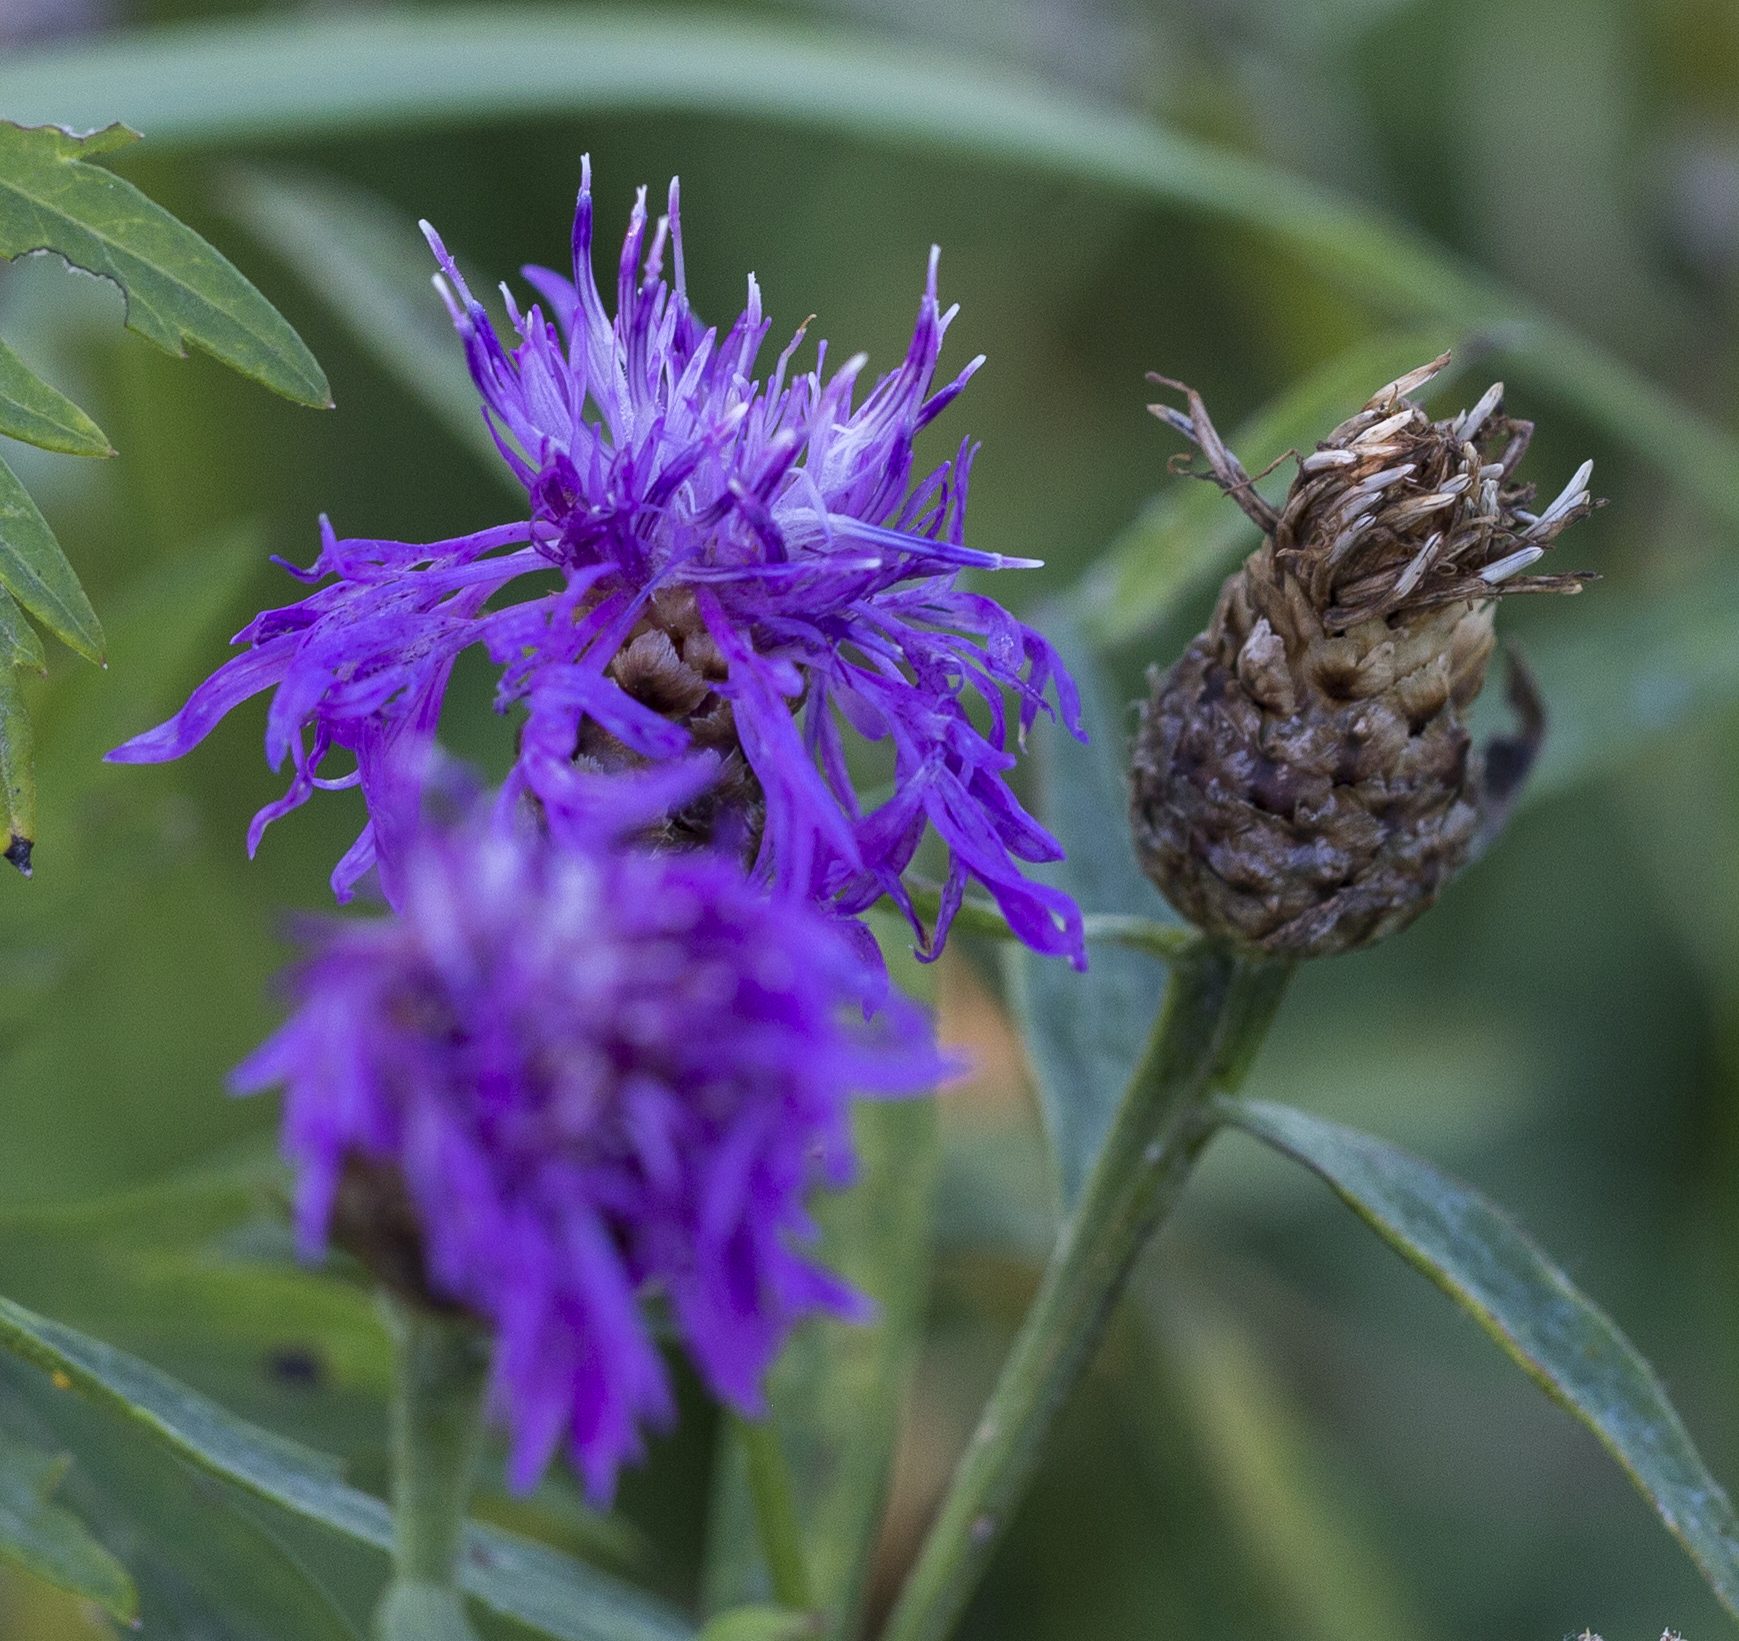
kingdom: Plantae
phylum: Tracheophyta
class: Magnoliopsida
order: Asterales
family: Asteraceae
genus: Centaurea
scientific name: Centaurea jacea
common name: Brown knapweed
